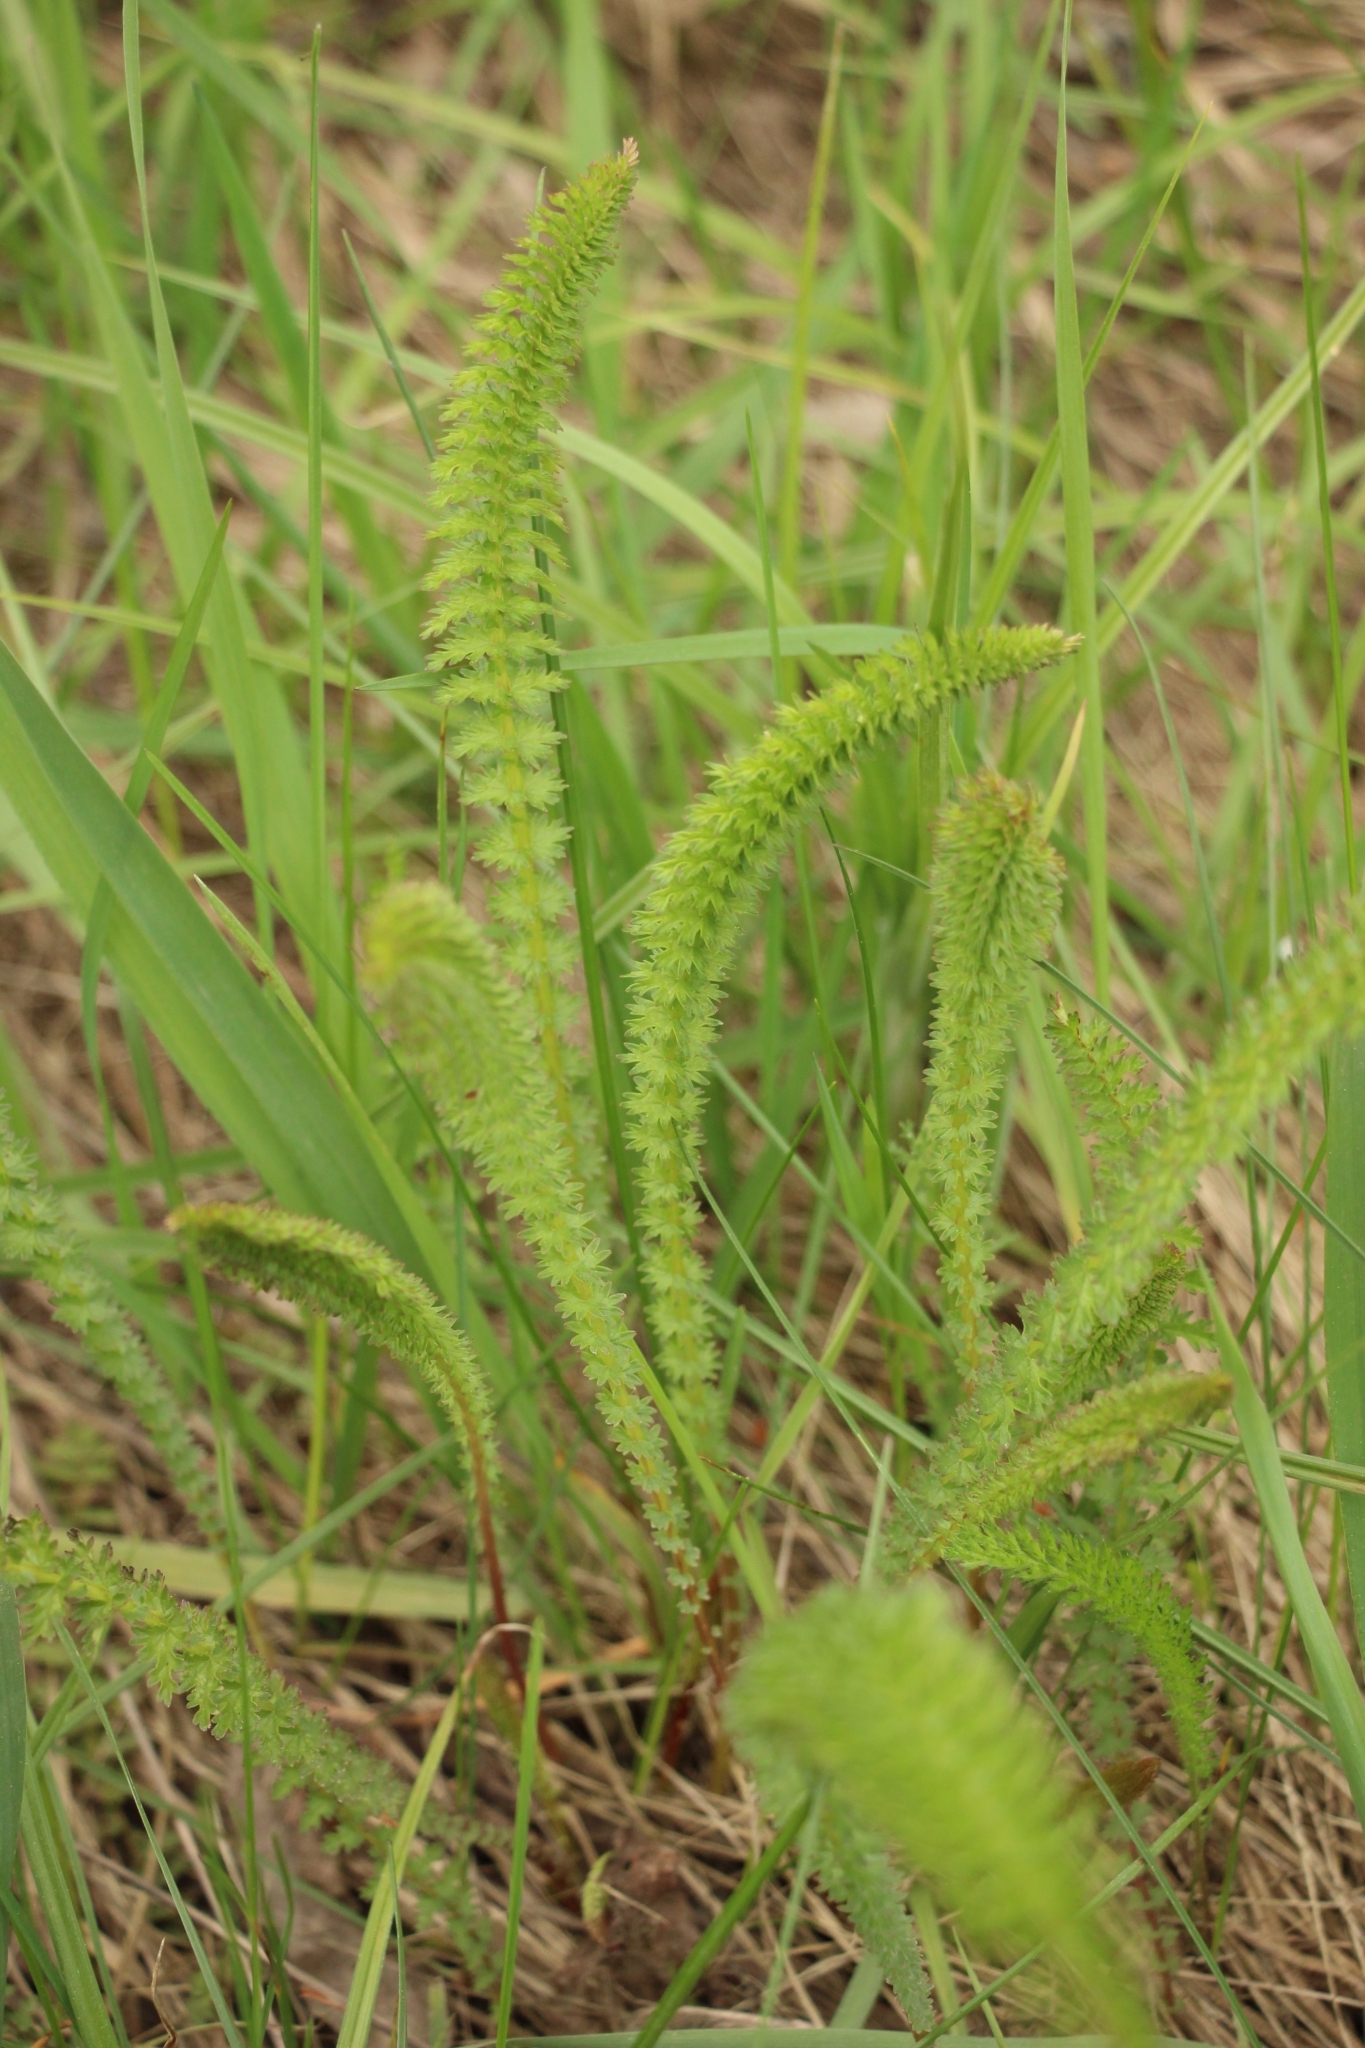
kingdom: Plantae
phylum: Tracheophyta
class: Magnoliopsida
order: Rosales
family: Rosaceae
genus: Filipendula
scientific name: Filipendula vulgaris
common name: Dropwort
